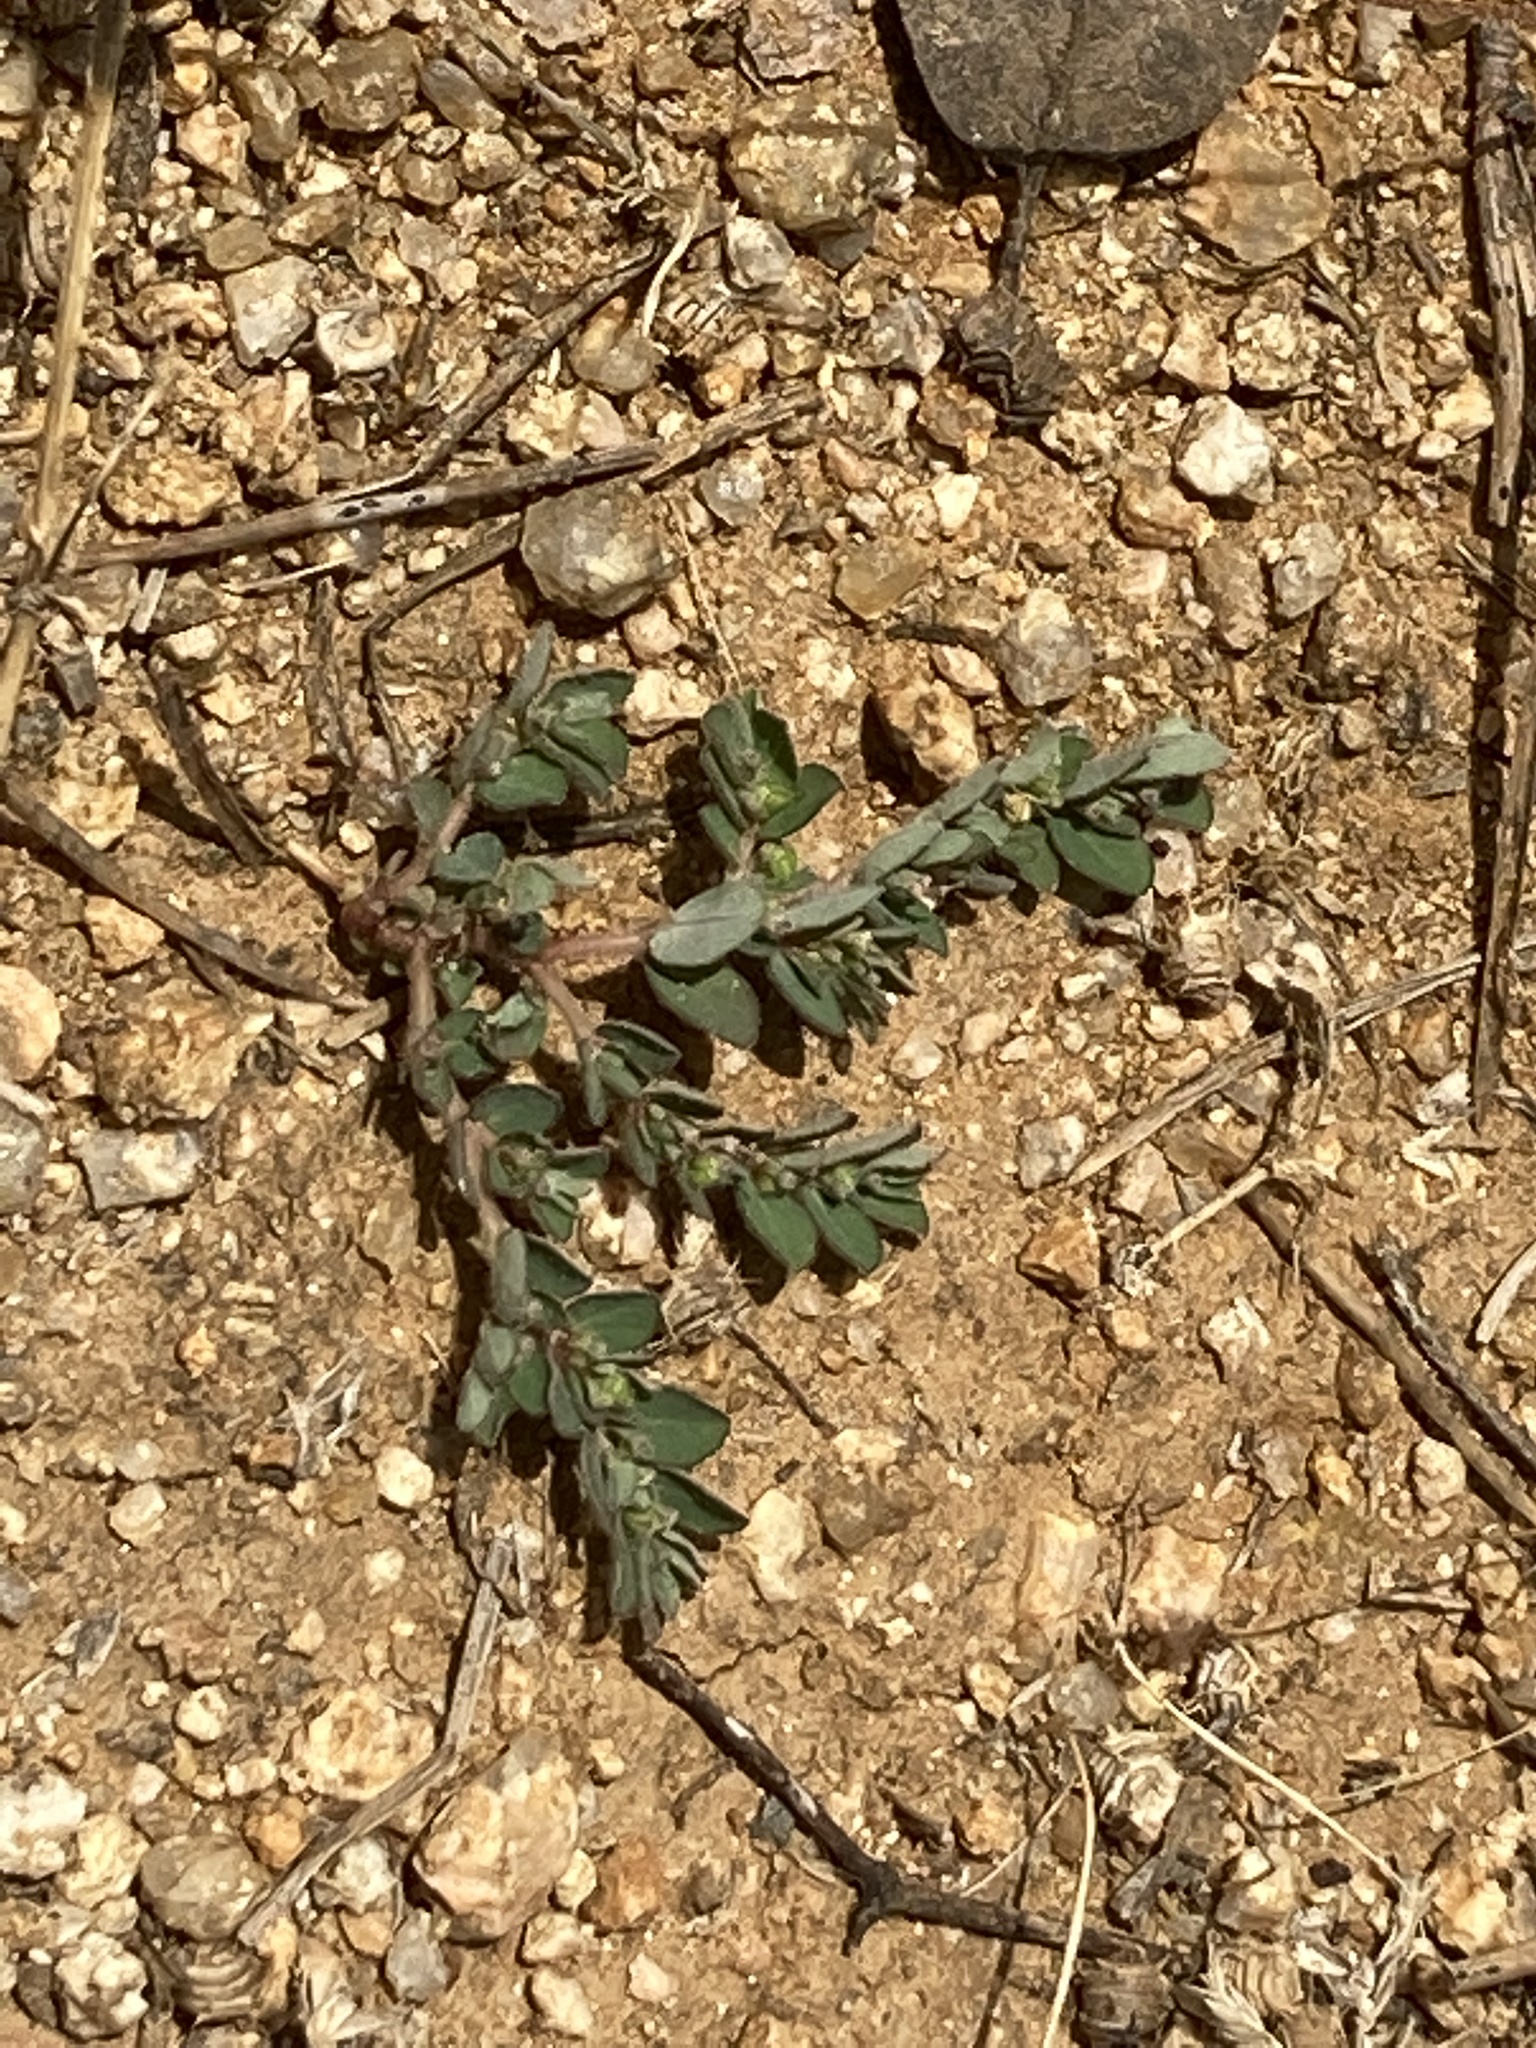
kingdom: Plantae
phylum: Tracheophyta
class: Magnoliopsida
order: Malpighiales
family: Euphorbiaceae
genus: Euphorbia
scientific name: Euphorbia prostrata
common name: Prostrate sandmat
